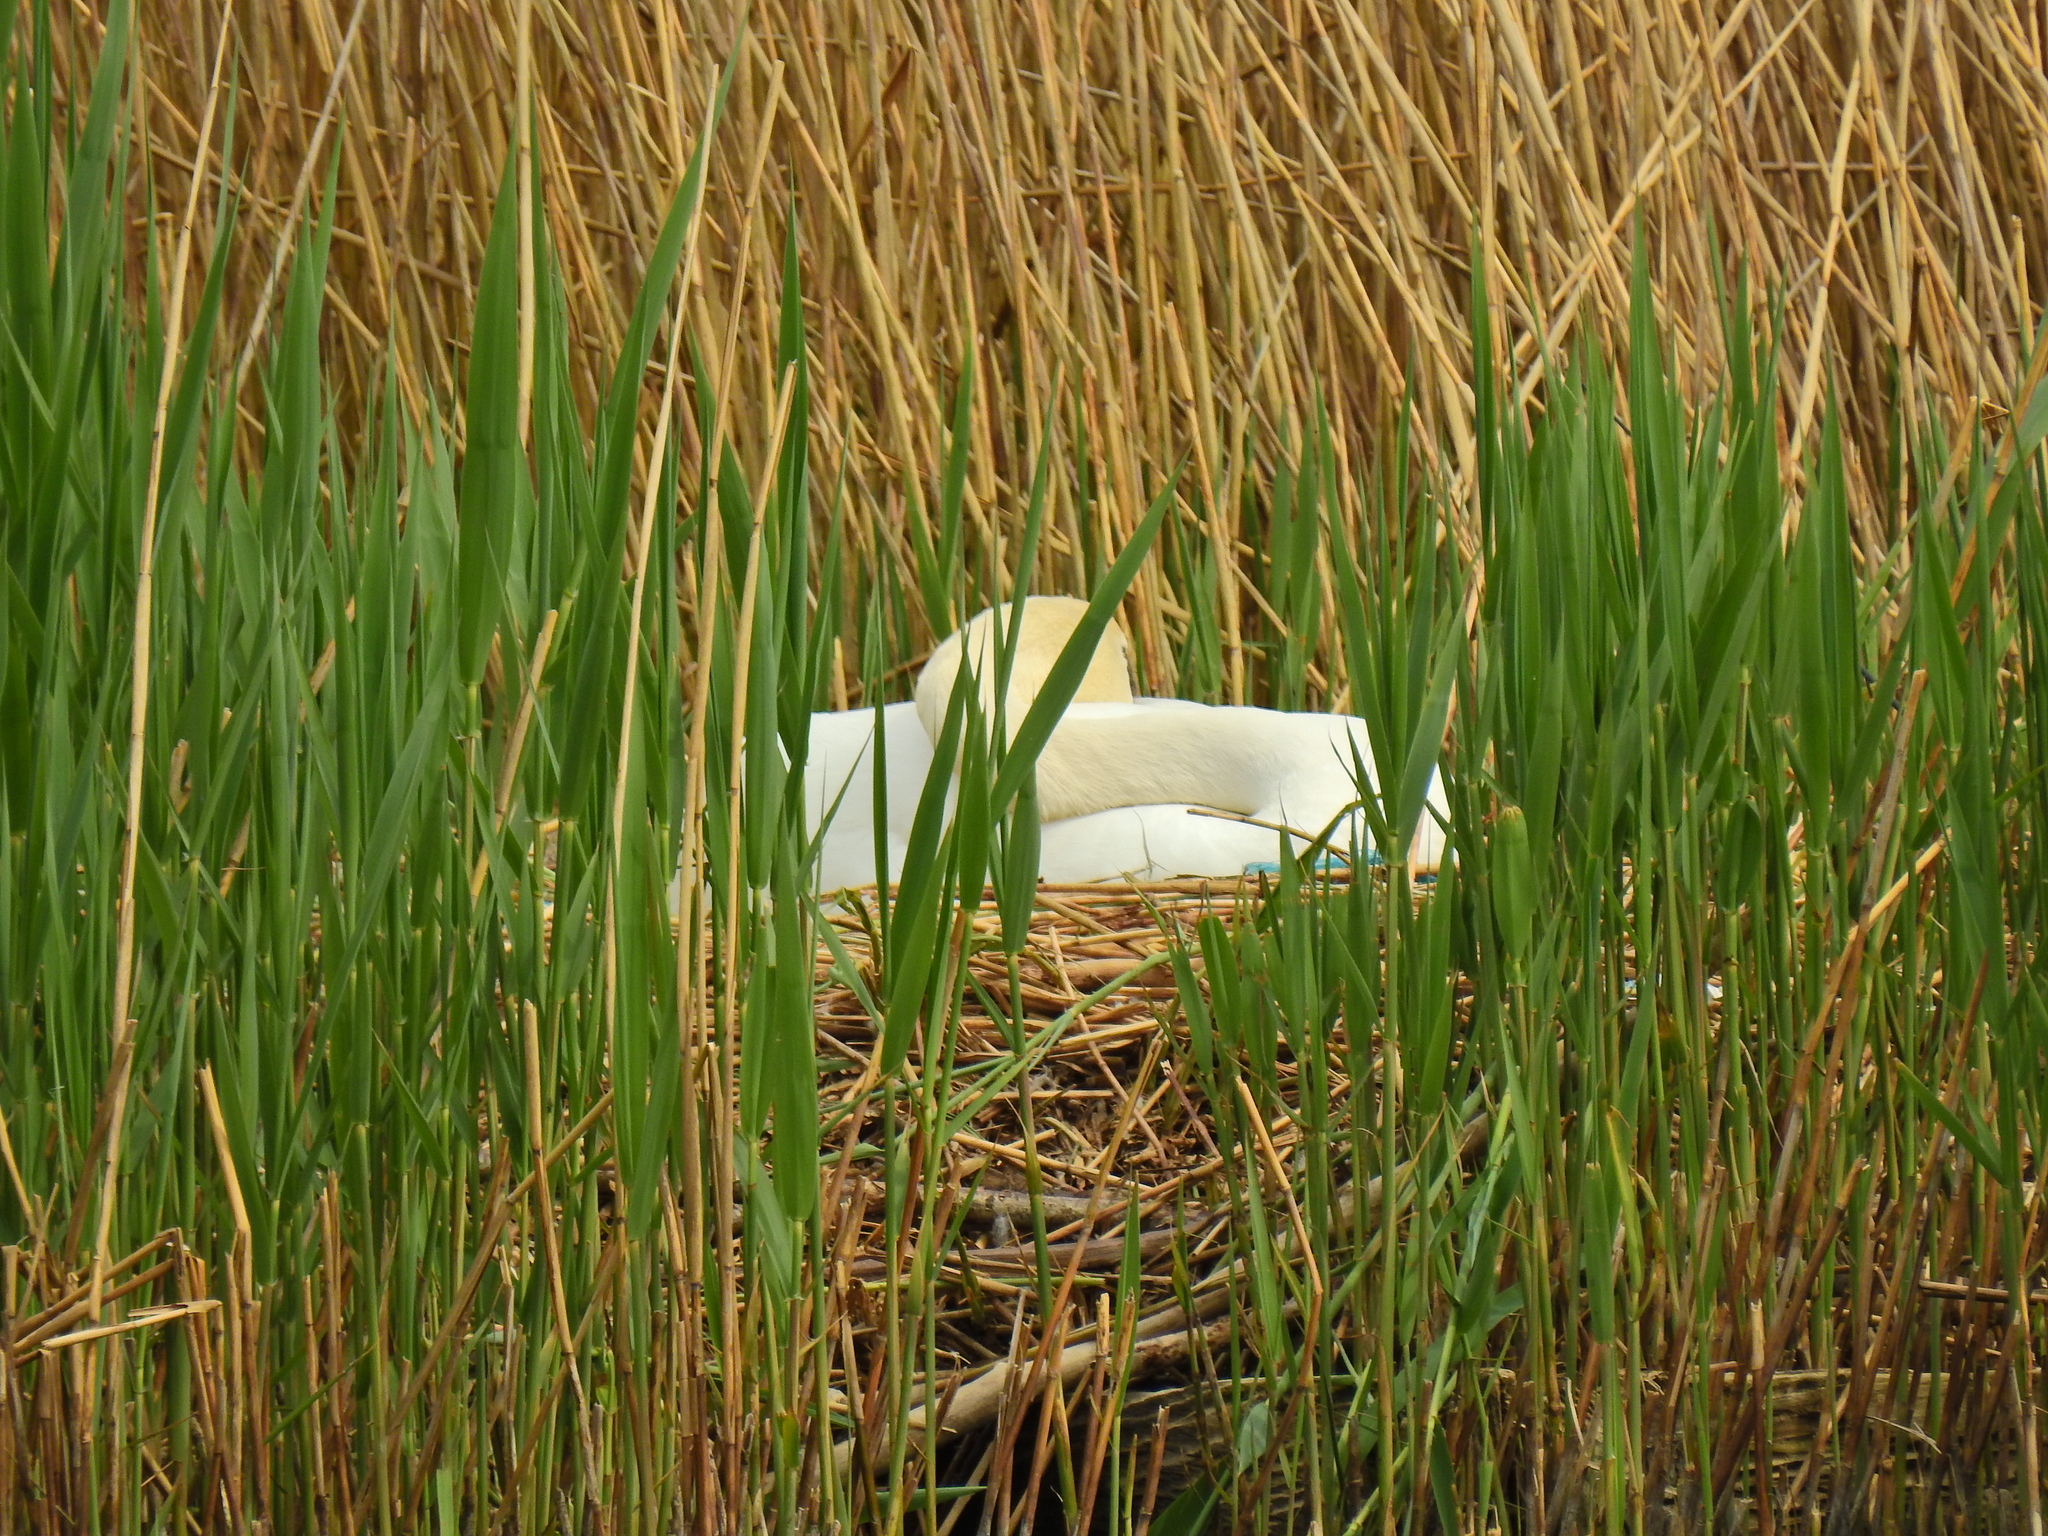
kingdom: Animalia
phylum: Chordata
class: Aves
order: Anseriformes
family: Anatidae
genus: Cygnus
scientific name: Cygnus olor
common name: Mute swan
